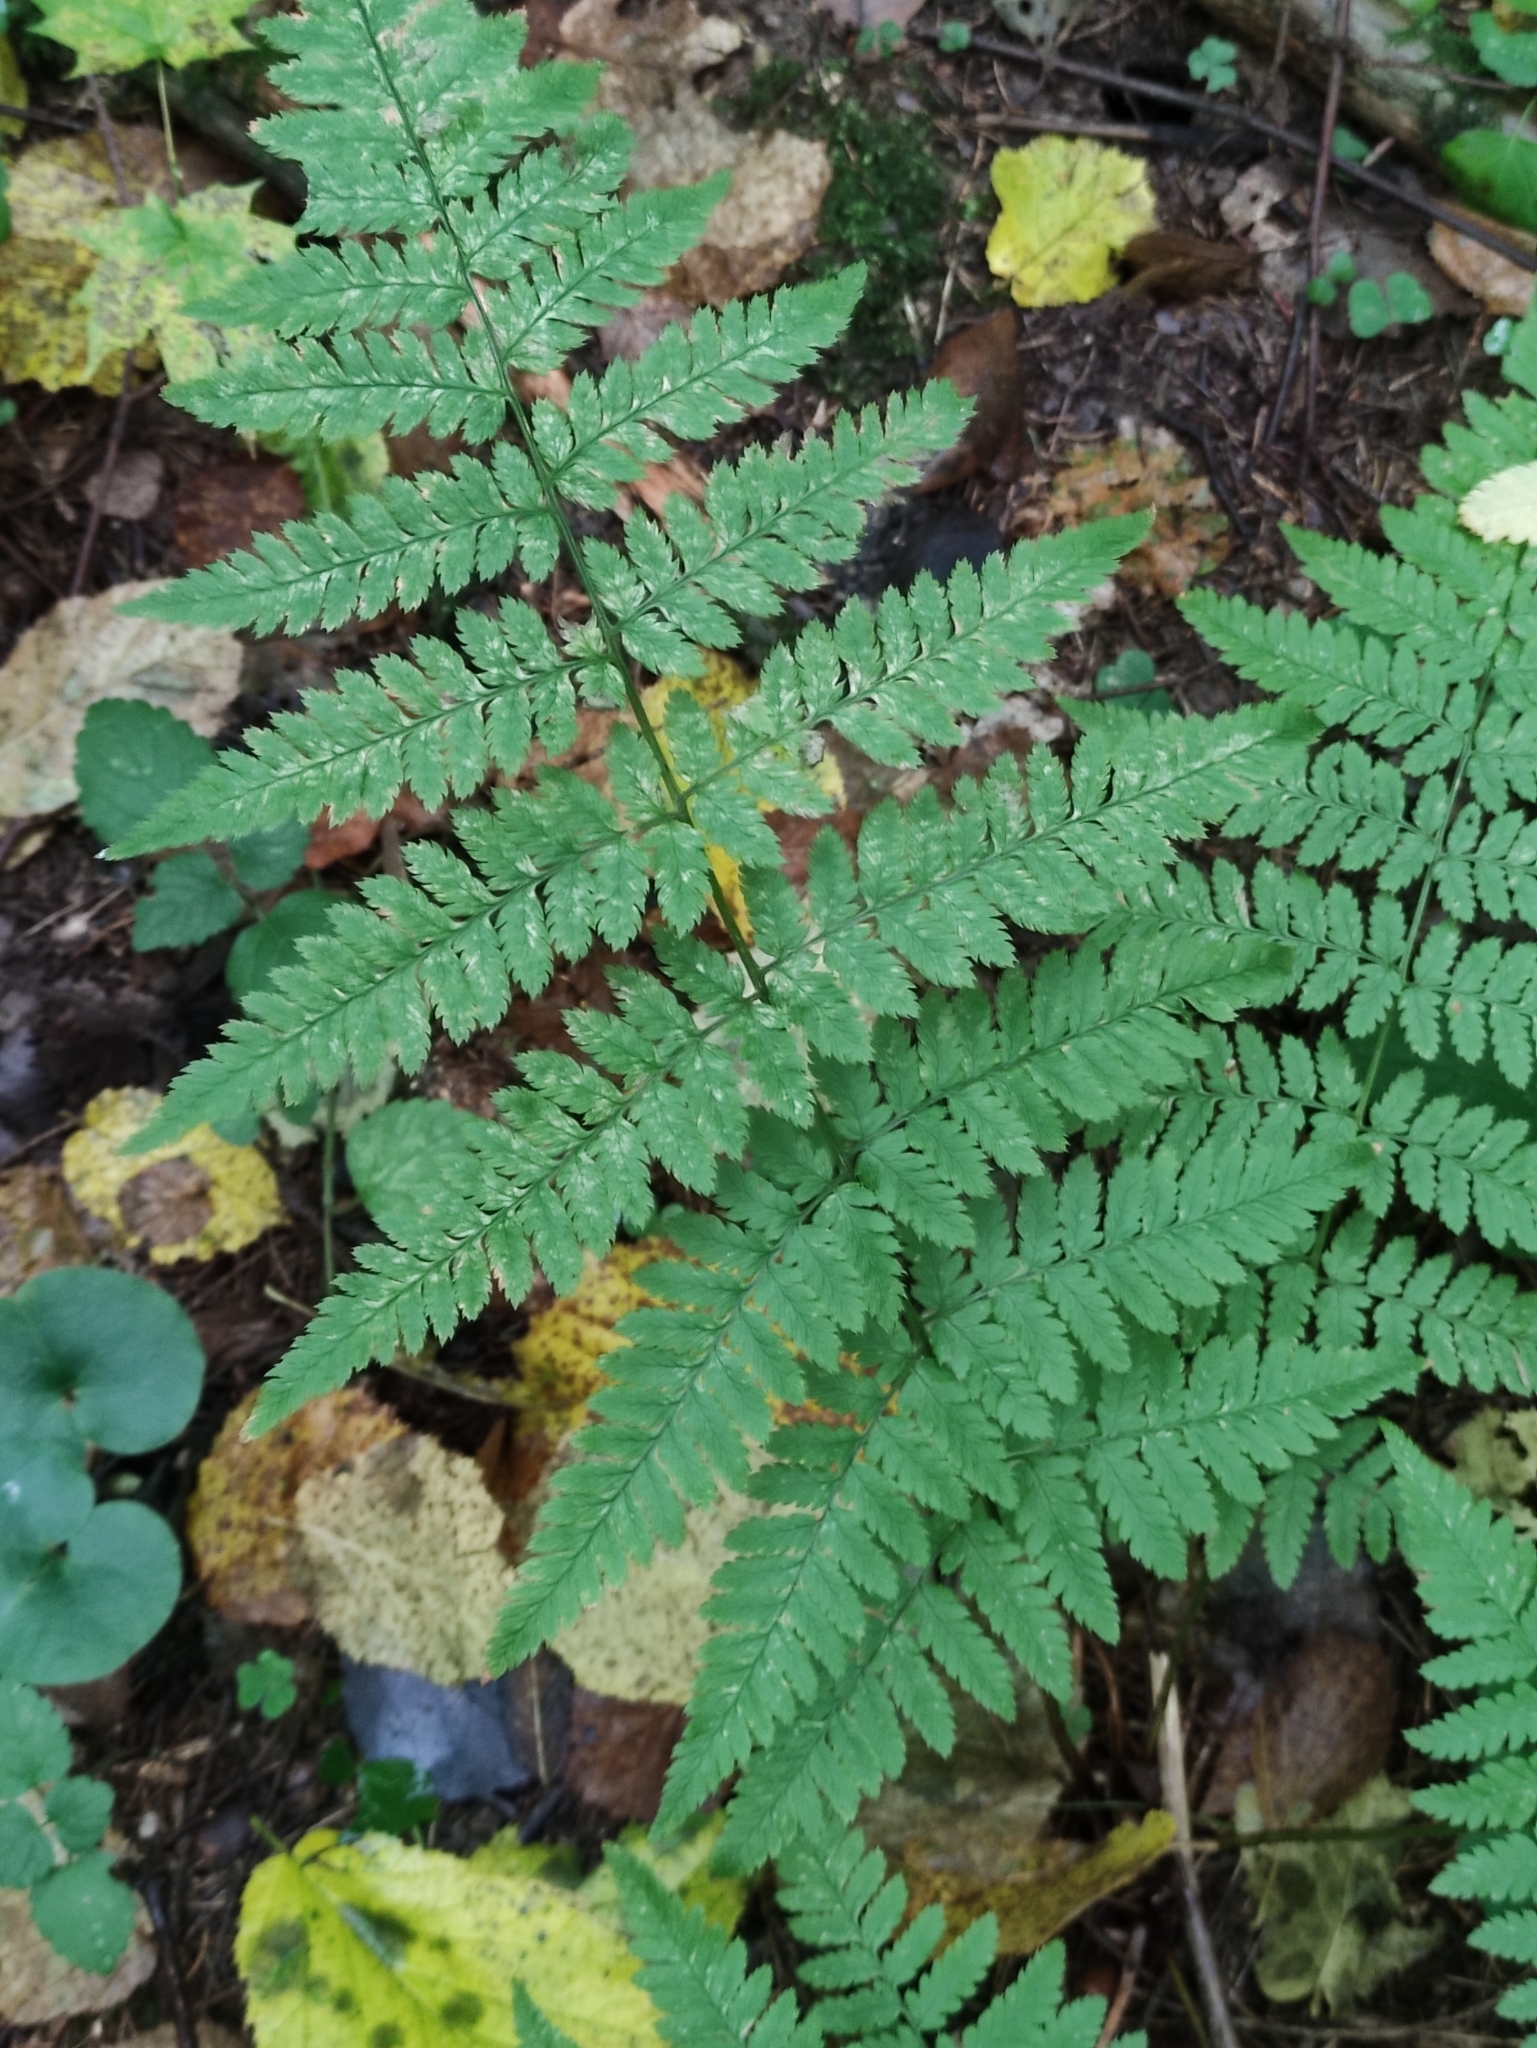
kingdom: Plantae
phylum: Tracheophyta
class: Polypodiopsida
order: Polypodiales
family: Dryopteridaceae
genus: Dryopteris
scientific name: Dryopteris carthusiana
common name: Narrow buckler-fern
